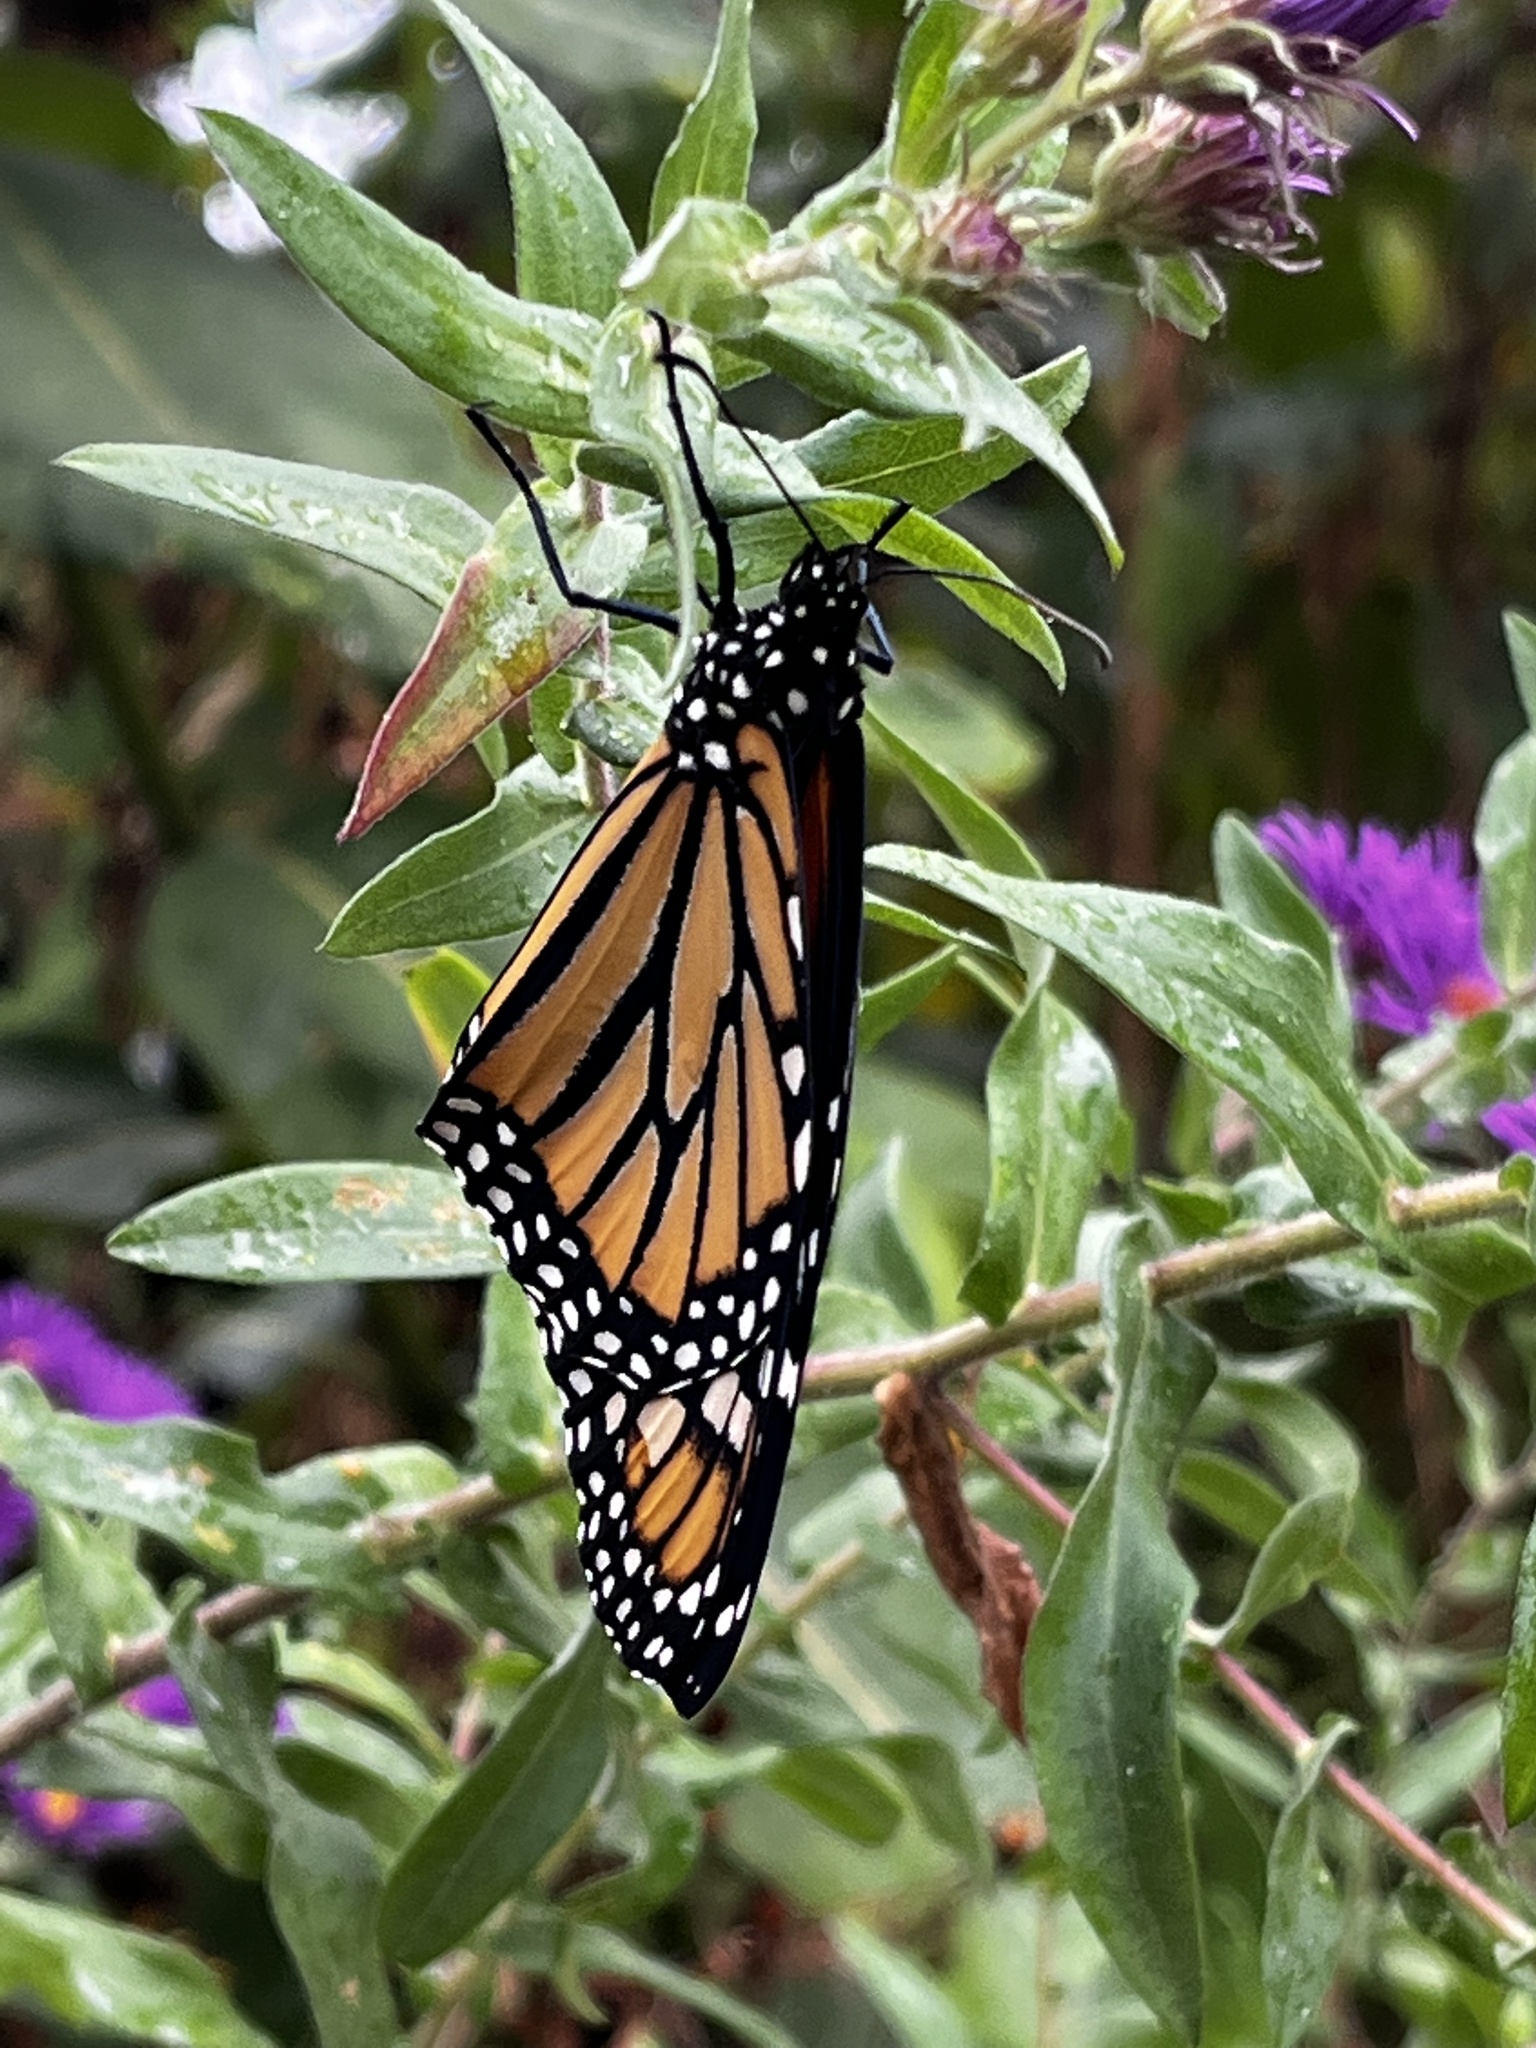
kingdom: Animalia
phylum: Arthropoda
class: Insecta
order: Lepidoptera
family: Nymphalidae
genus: Danaus
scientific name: Danaus plexippus
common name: Monarch
